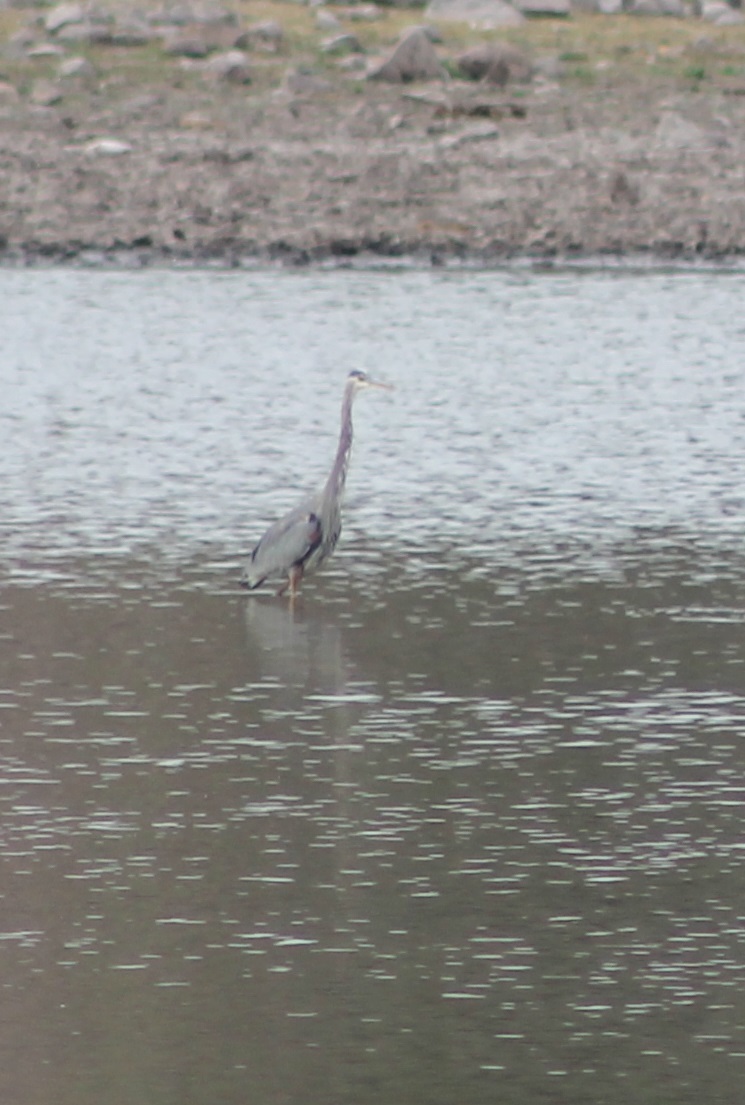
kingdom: Animalia
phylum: Chordata
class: Aves
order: Pelecaniformes
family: Ardeidae
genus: Ardea
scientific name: Ardea herodias
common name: Great blue heron
